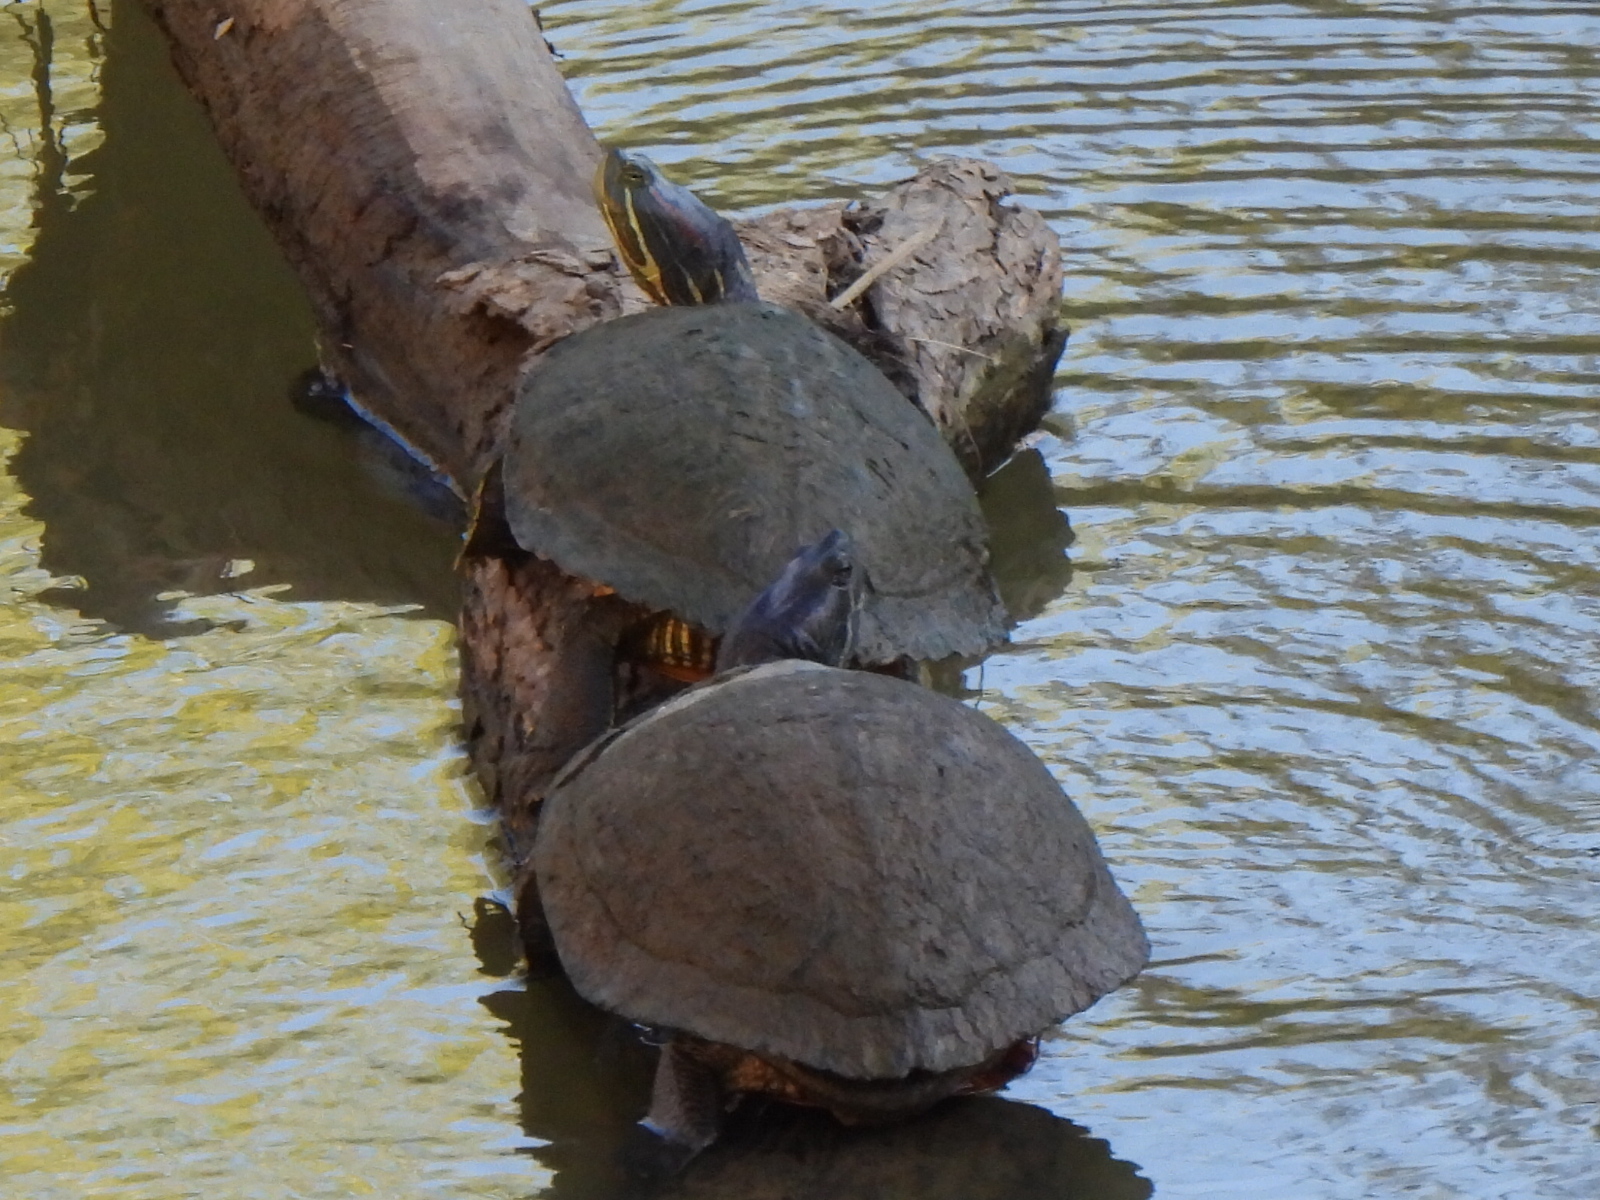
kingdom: Animalia
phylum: Chordata
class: Testudines
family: Emydidae
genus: Trachemys
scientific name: Trachemys scripta
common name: Slider
